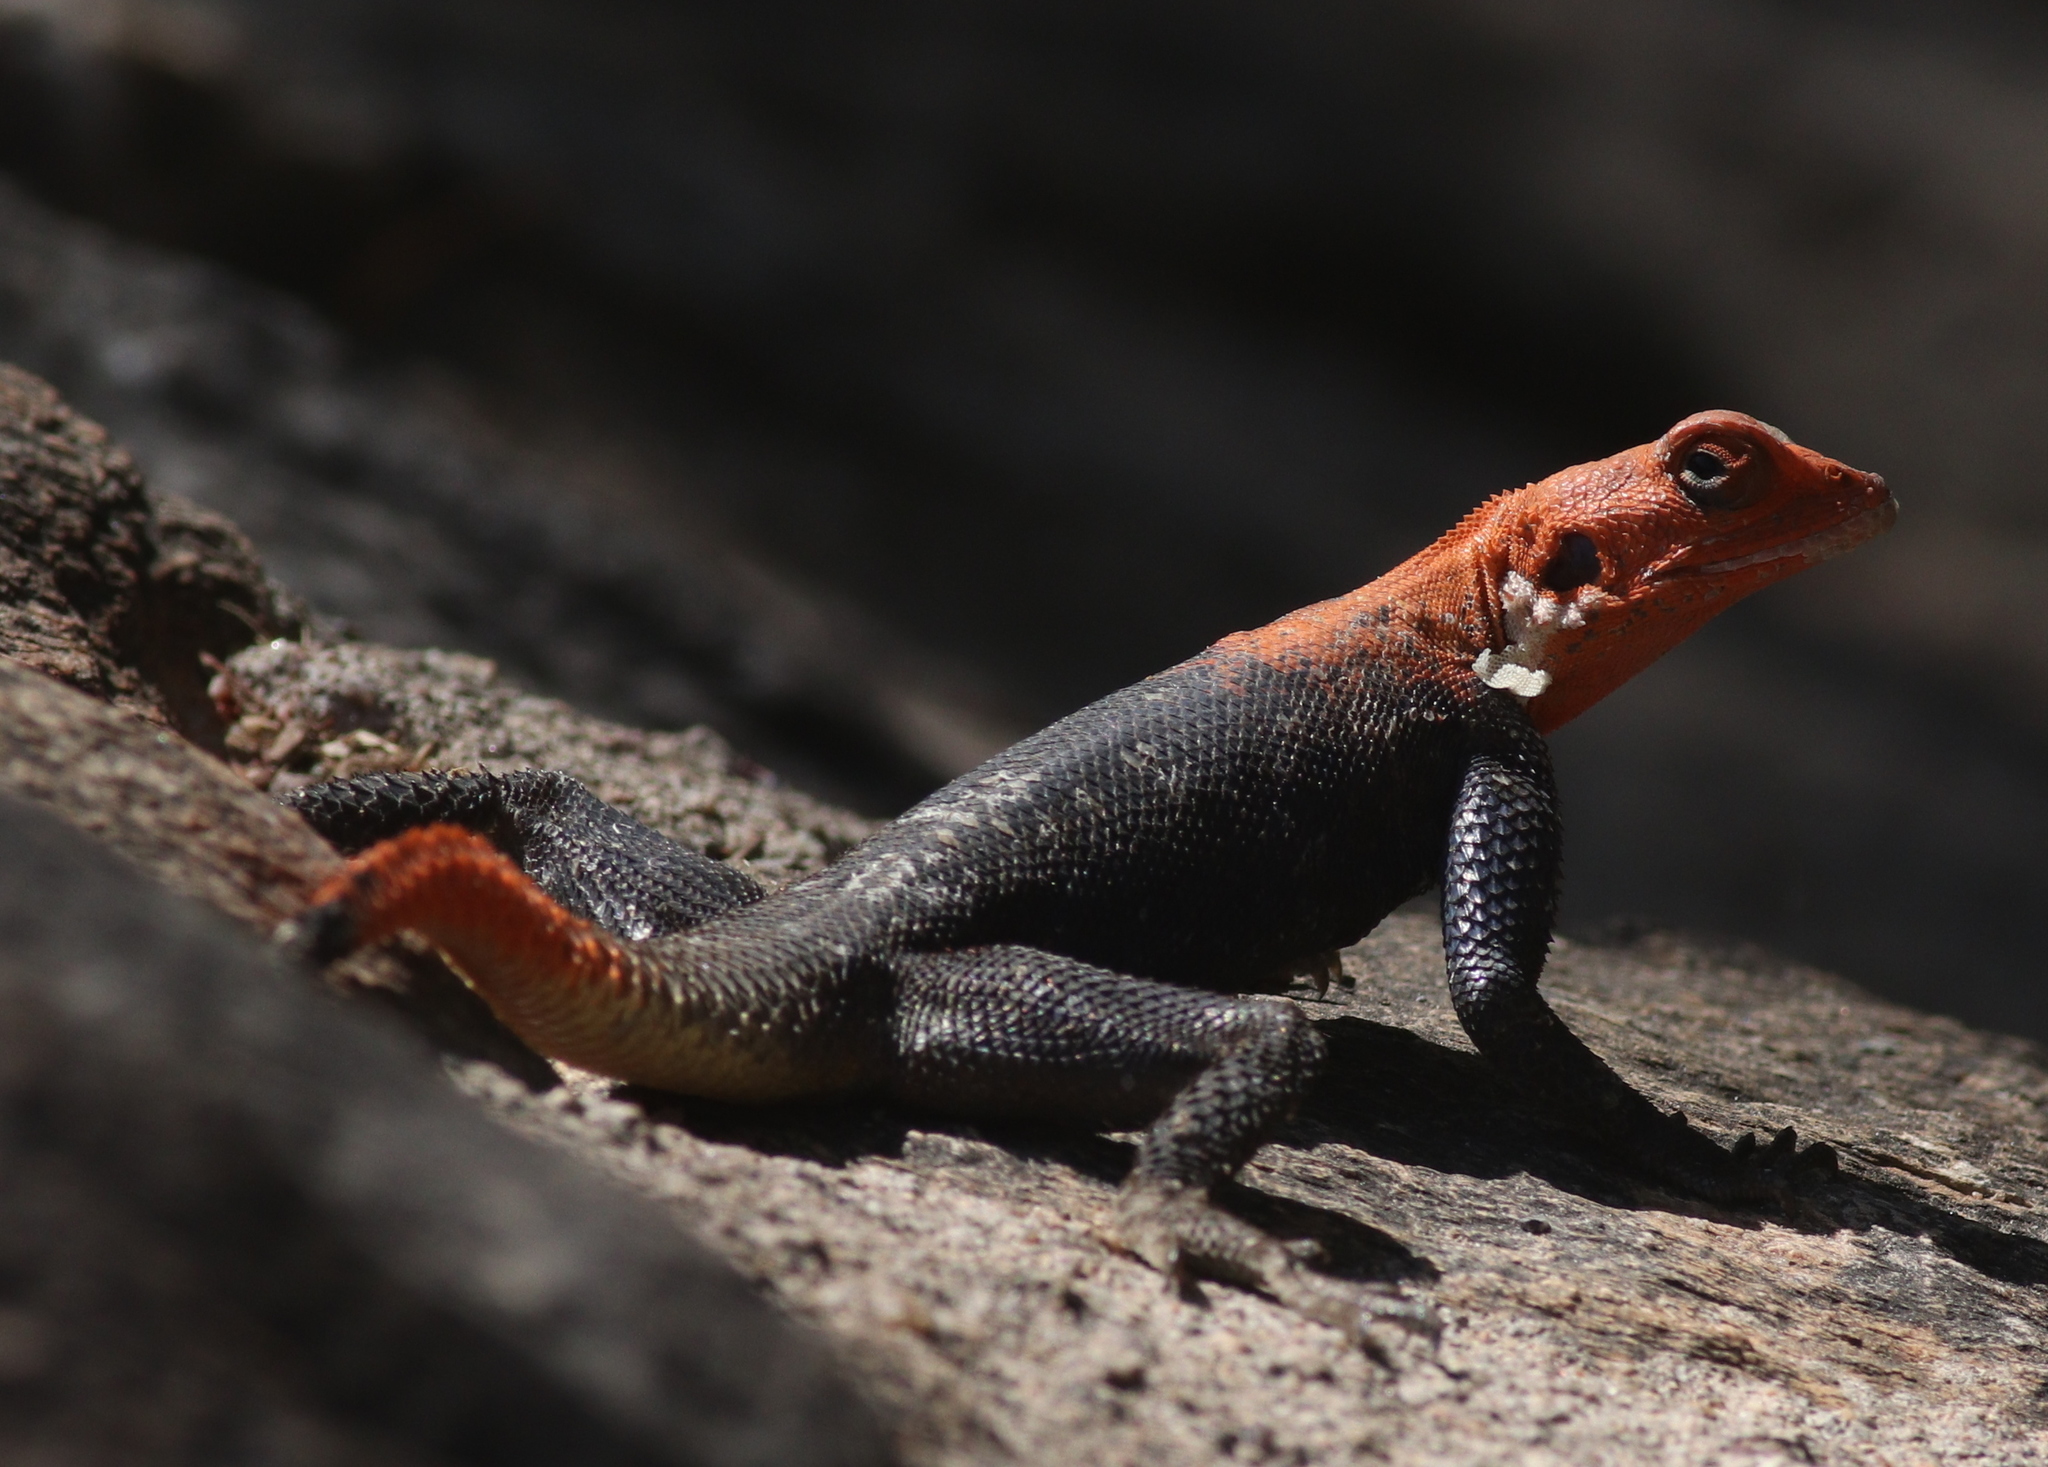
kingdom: Animalia
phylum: Chordata
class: Squamata
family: Agamidae
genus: Agama
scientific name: Agama planiceps
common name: Namib rock agama
